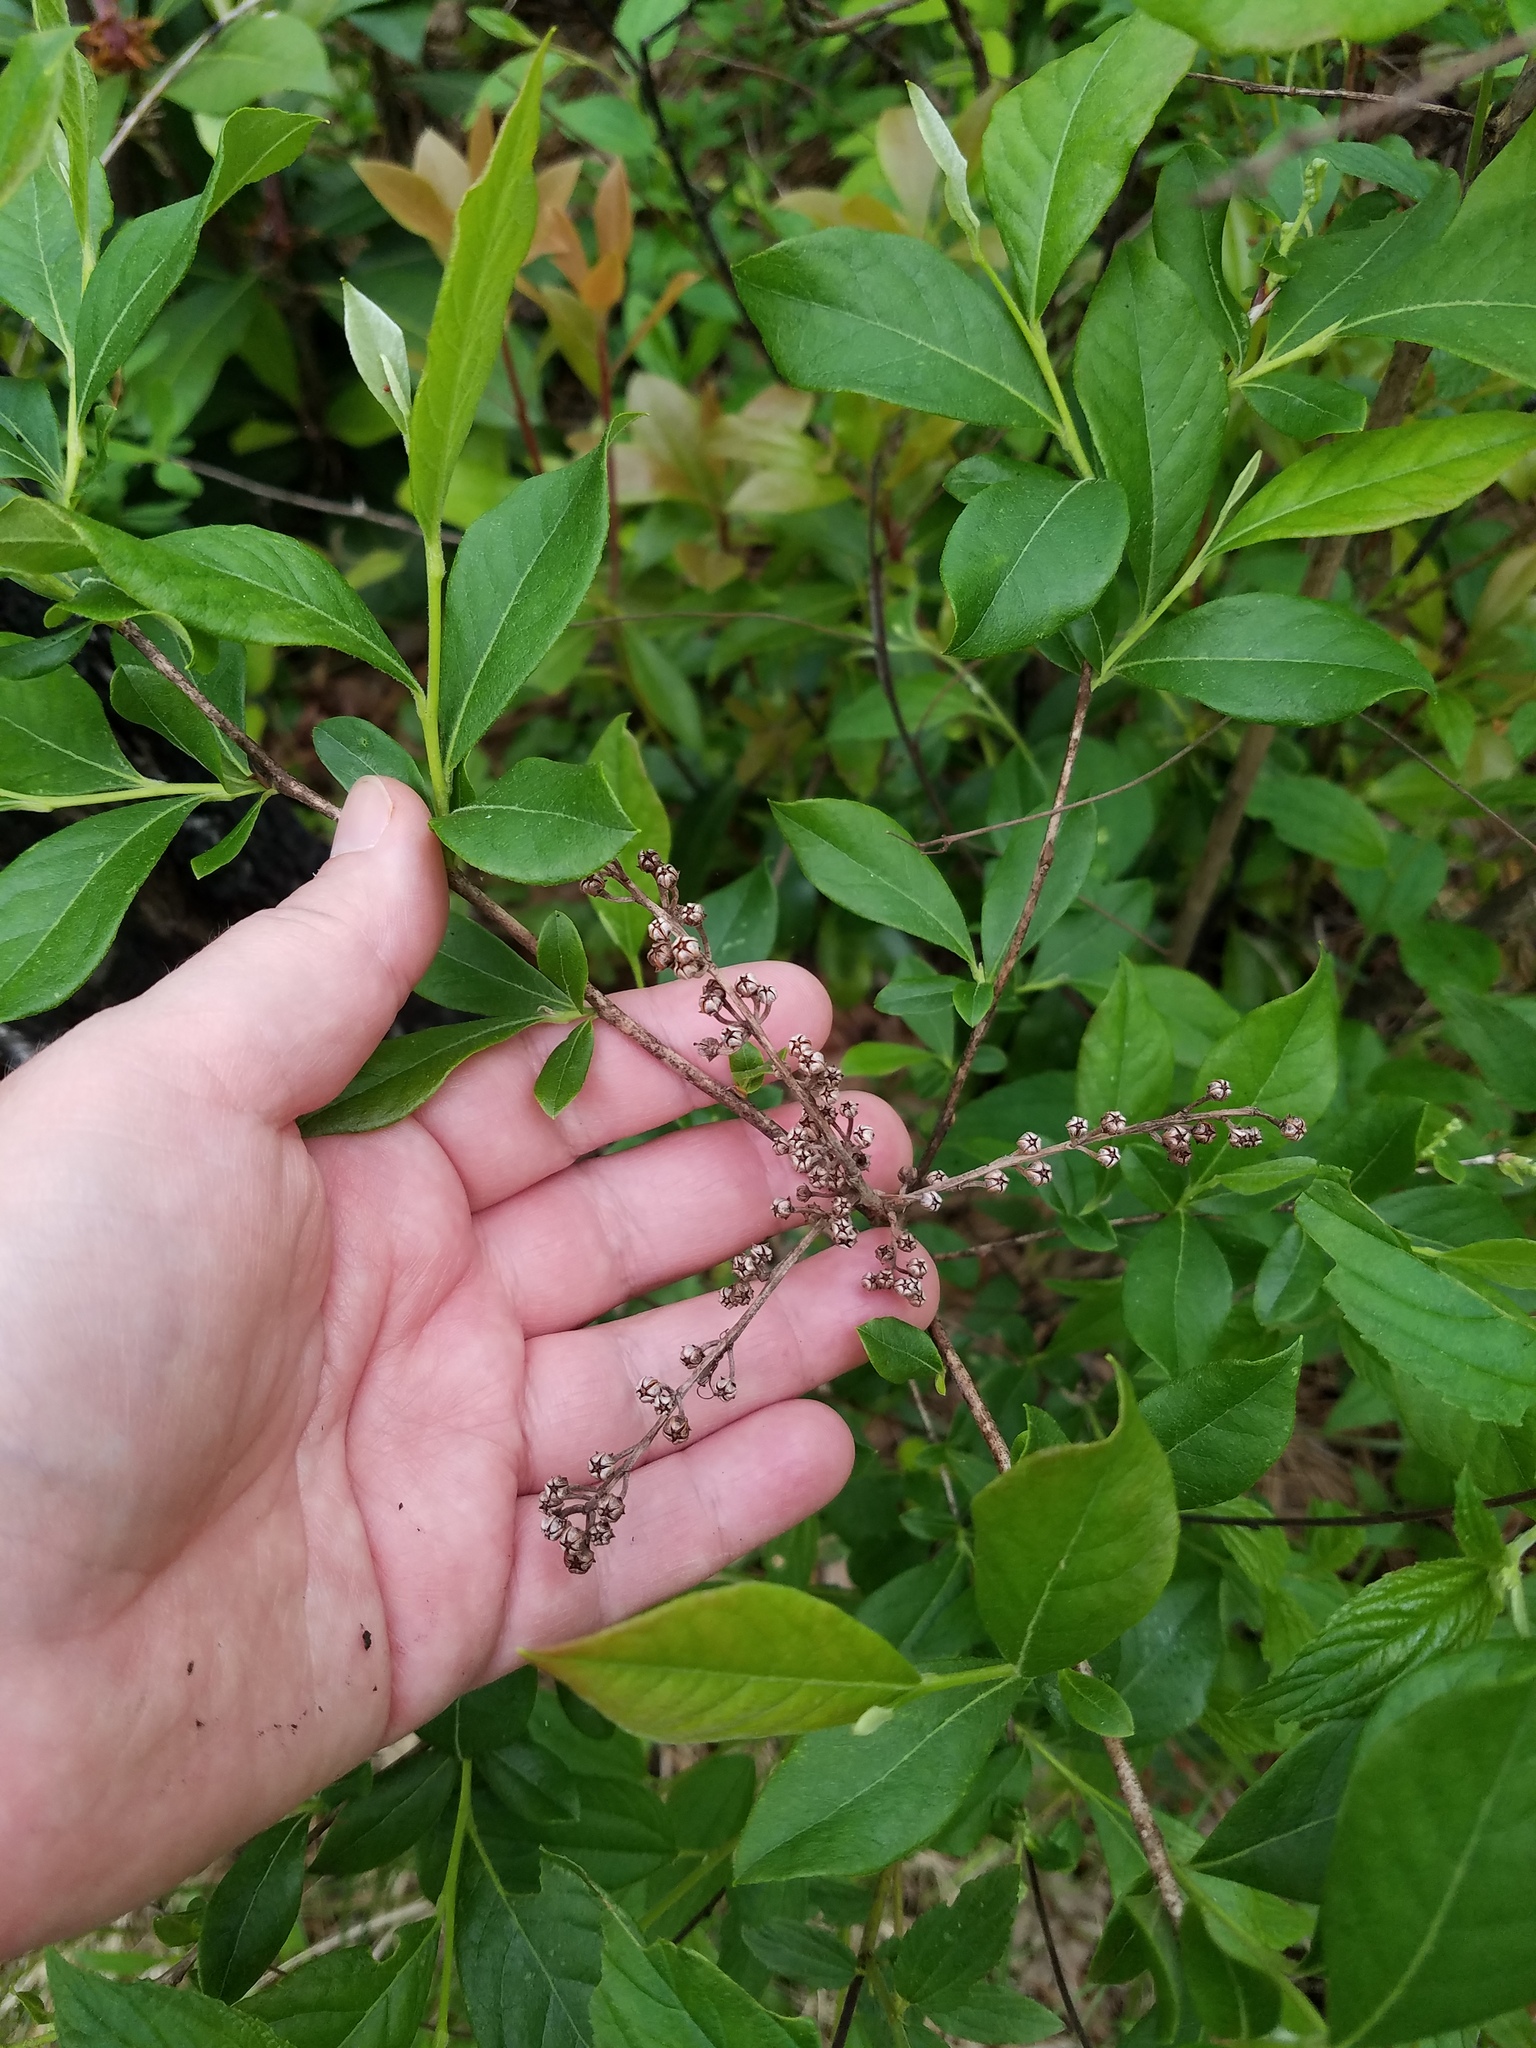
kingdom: Plantae
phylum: Tracheophyta
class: Magnoliopsida
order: Ericales
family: Ericaceae
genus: Lyonia
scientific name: Lyonia ligustrina
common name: Maleberry
